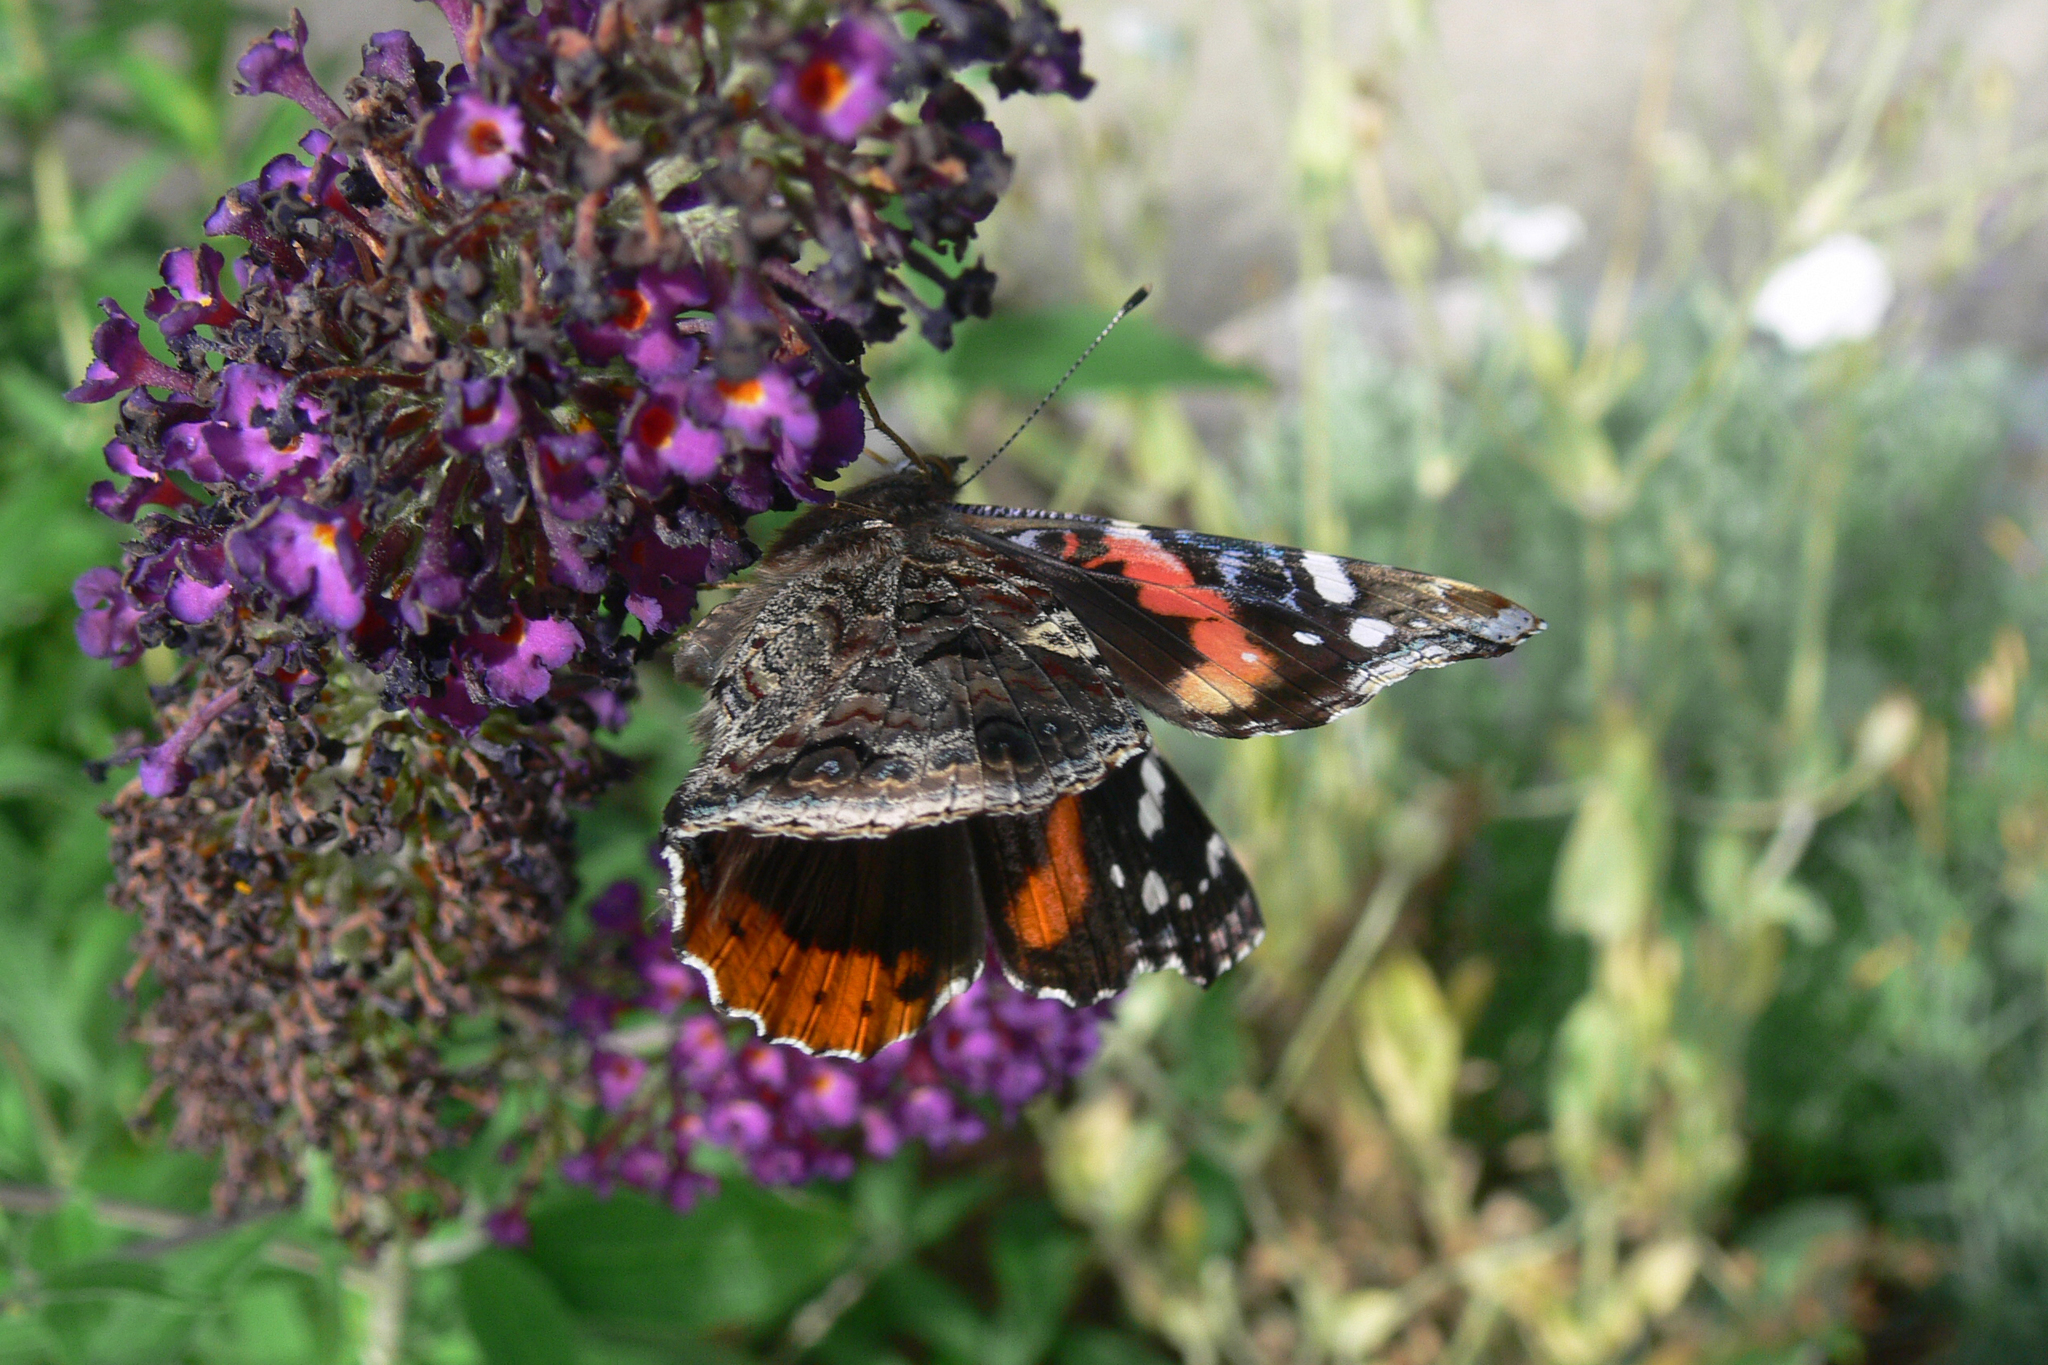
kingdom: Animalia
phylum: Arthropoda
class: Insecta
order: Lepidoptera
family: Nymphalidae
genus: Vanessa
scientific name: Vanessa atalanta
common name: Red admiral
